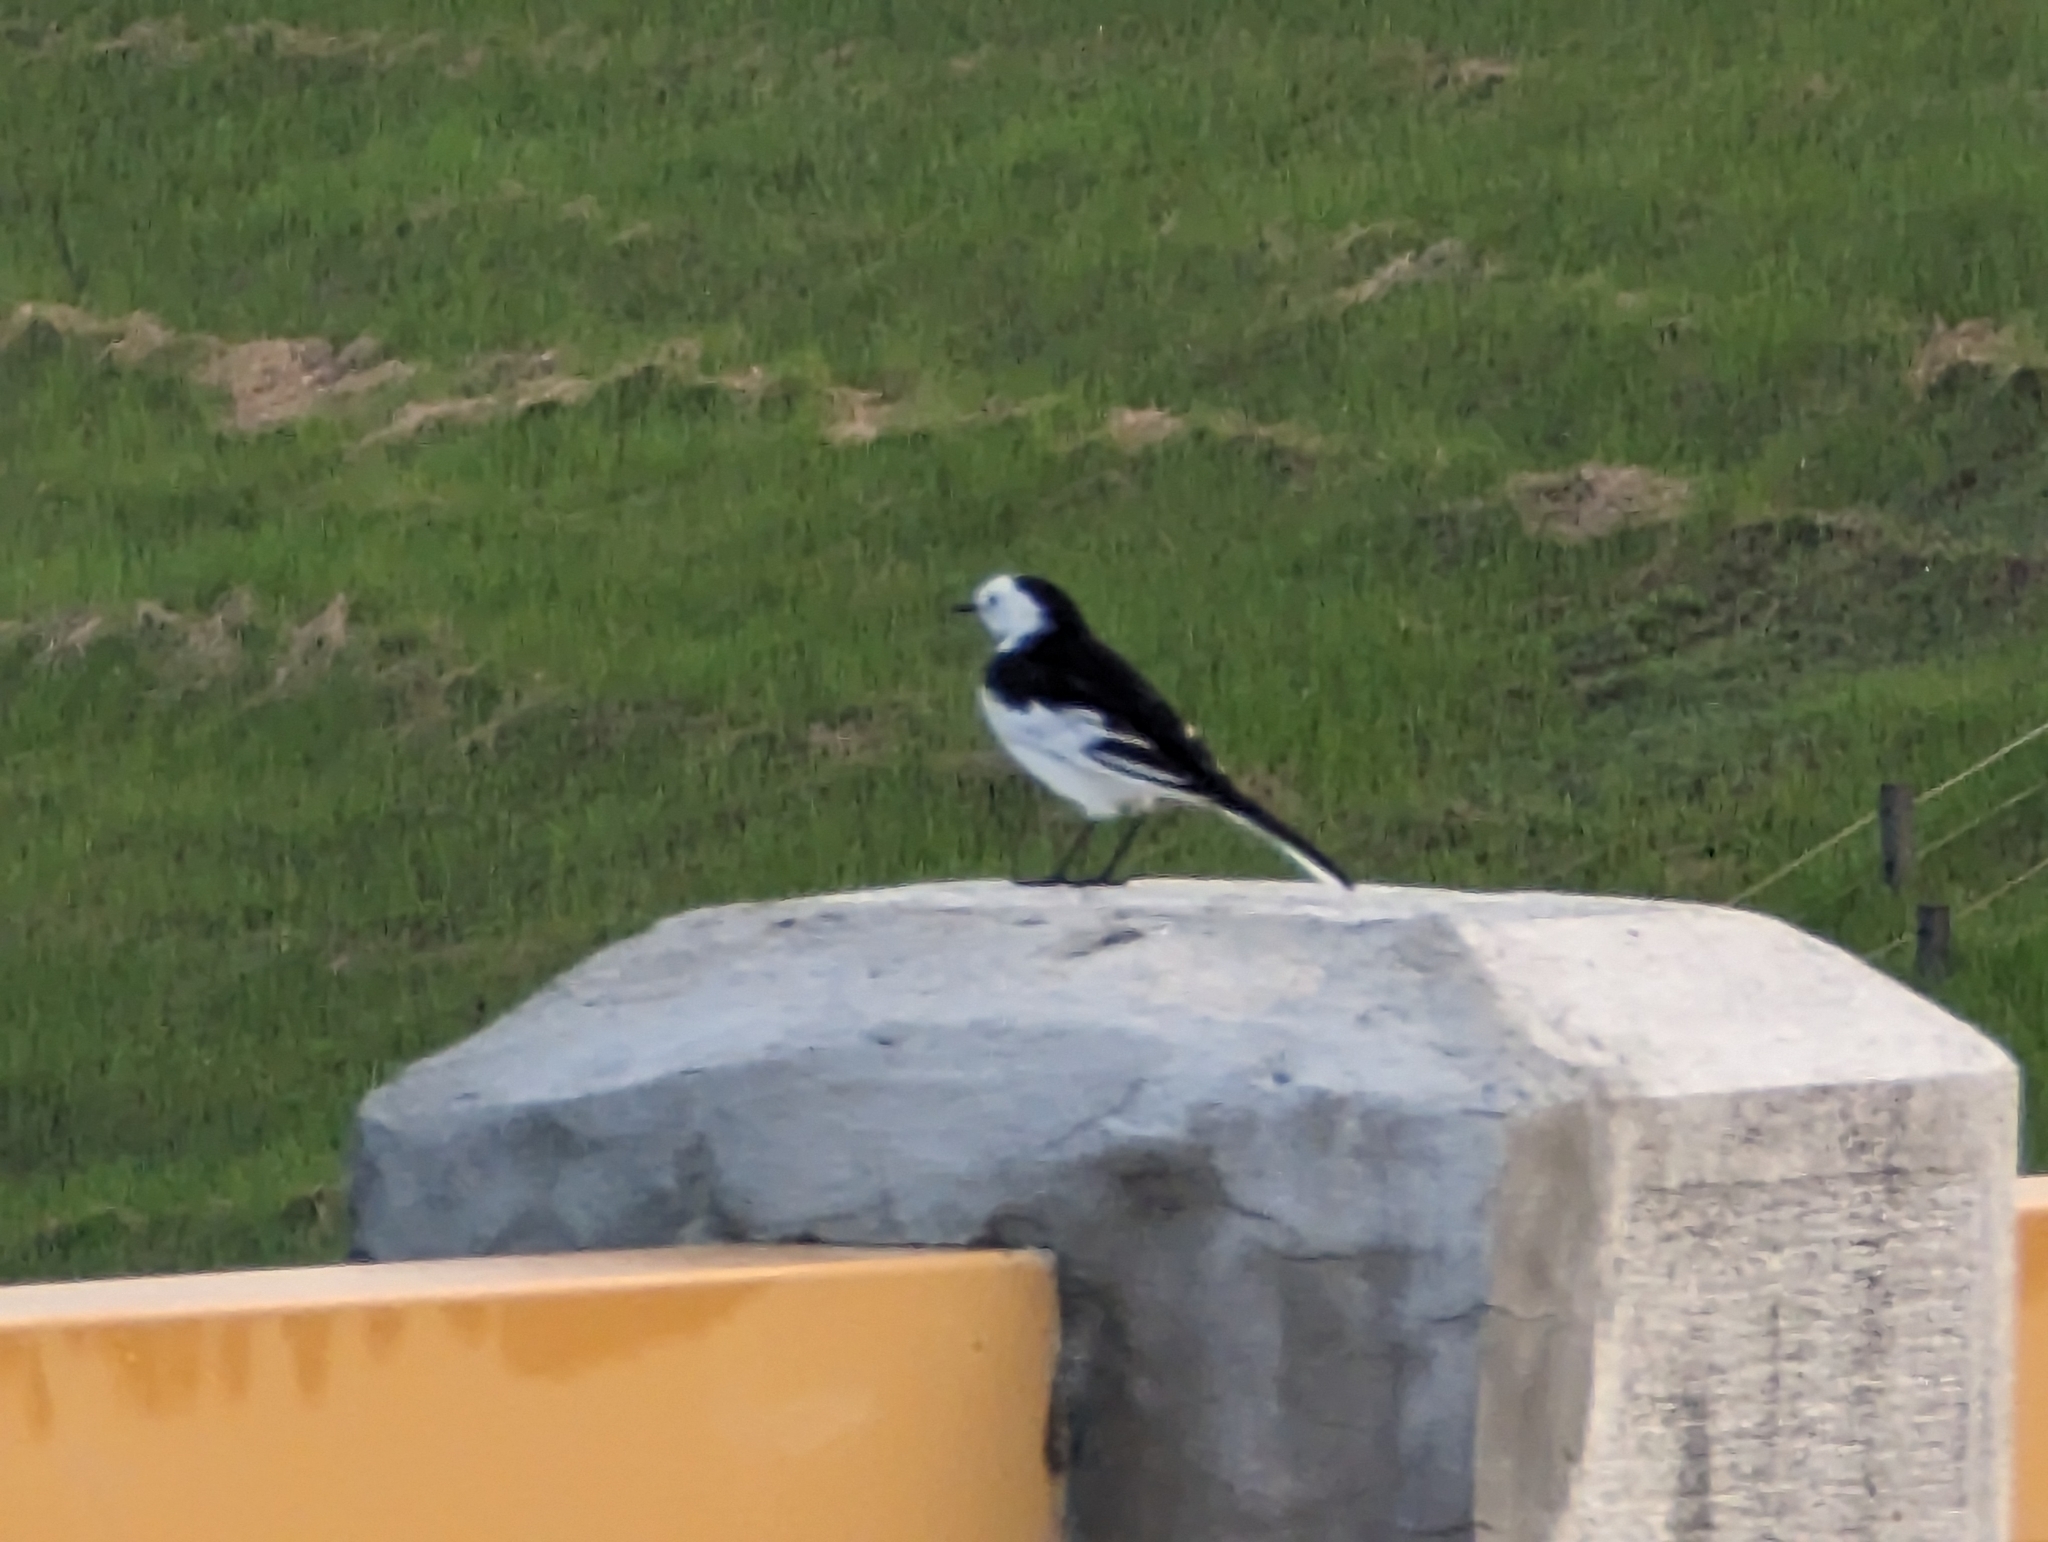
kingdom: Animalia
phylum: Chordata
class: Aves
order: Passeriformes
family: Motacillidae
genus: Motacilla
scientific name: Motacilla alba
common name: White wagtail
